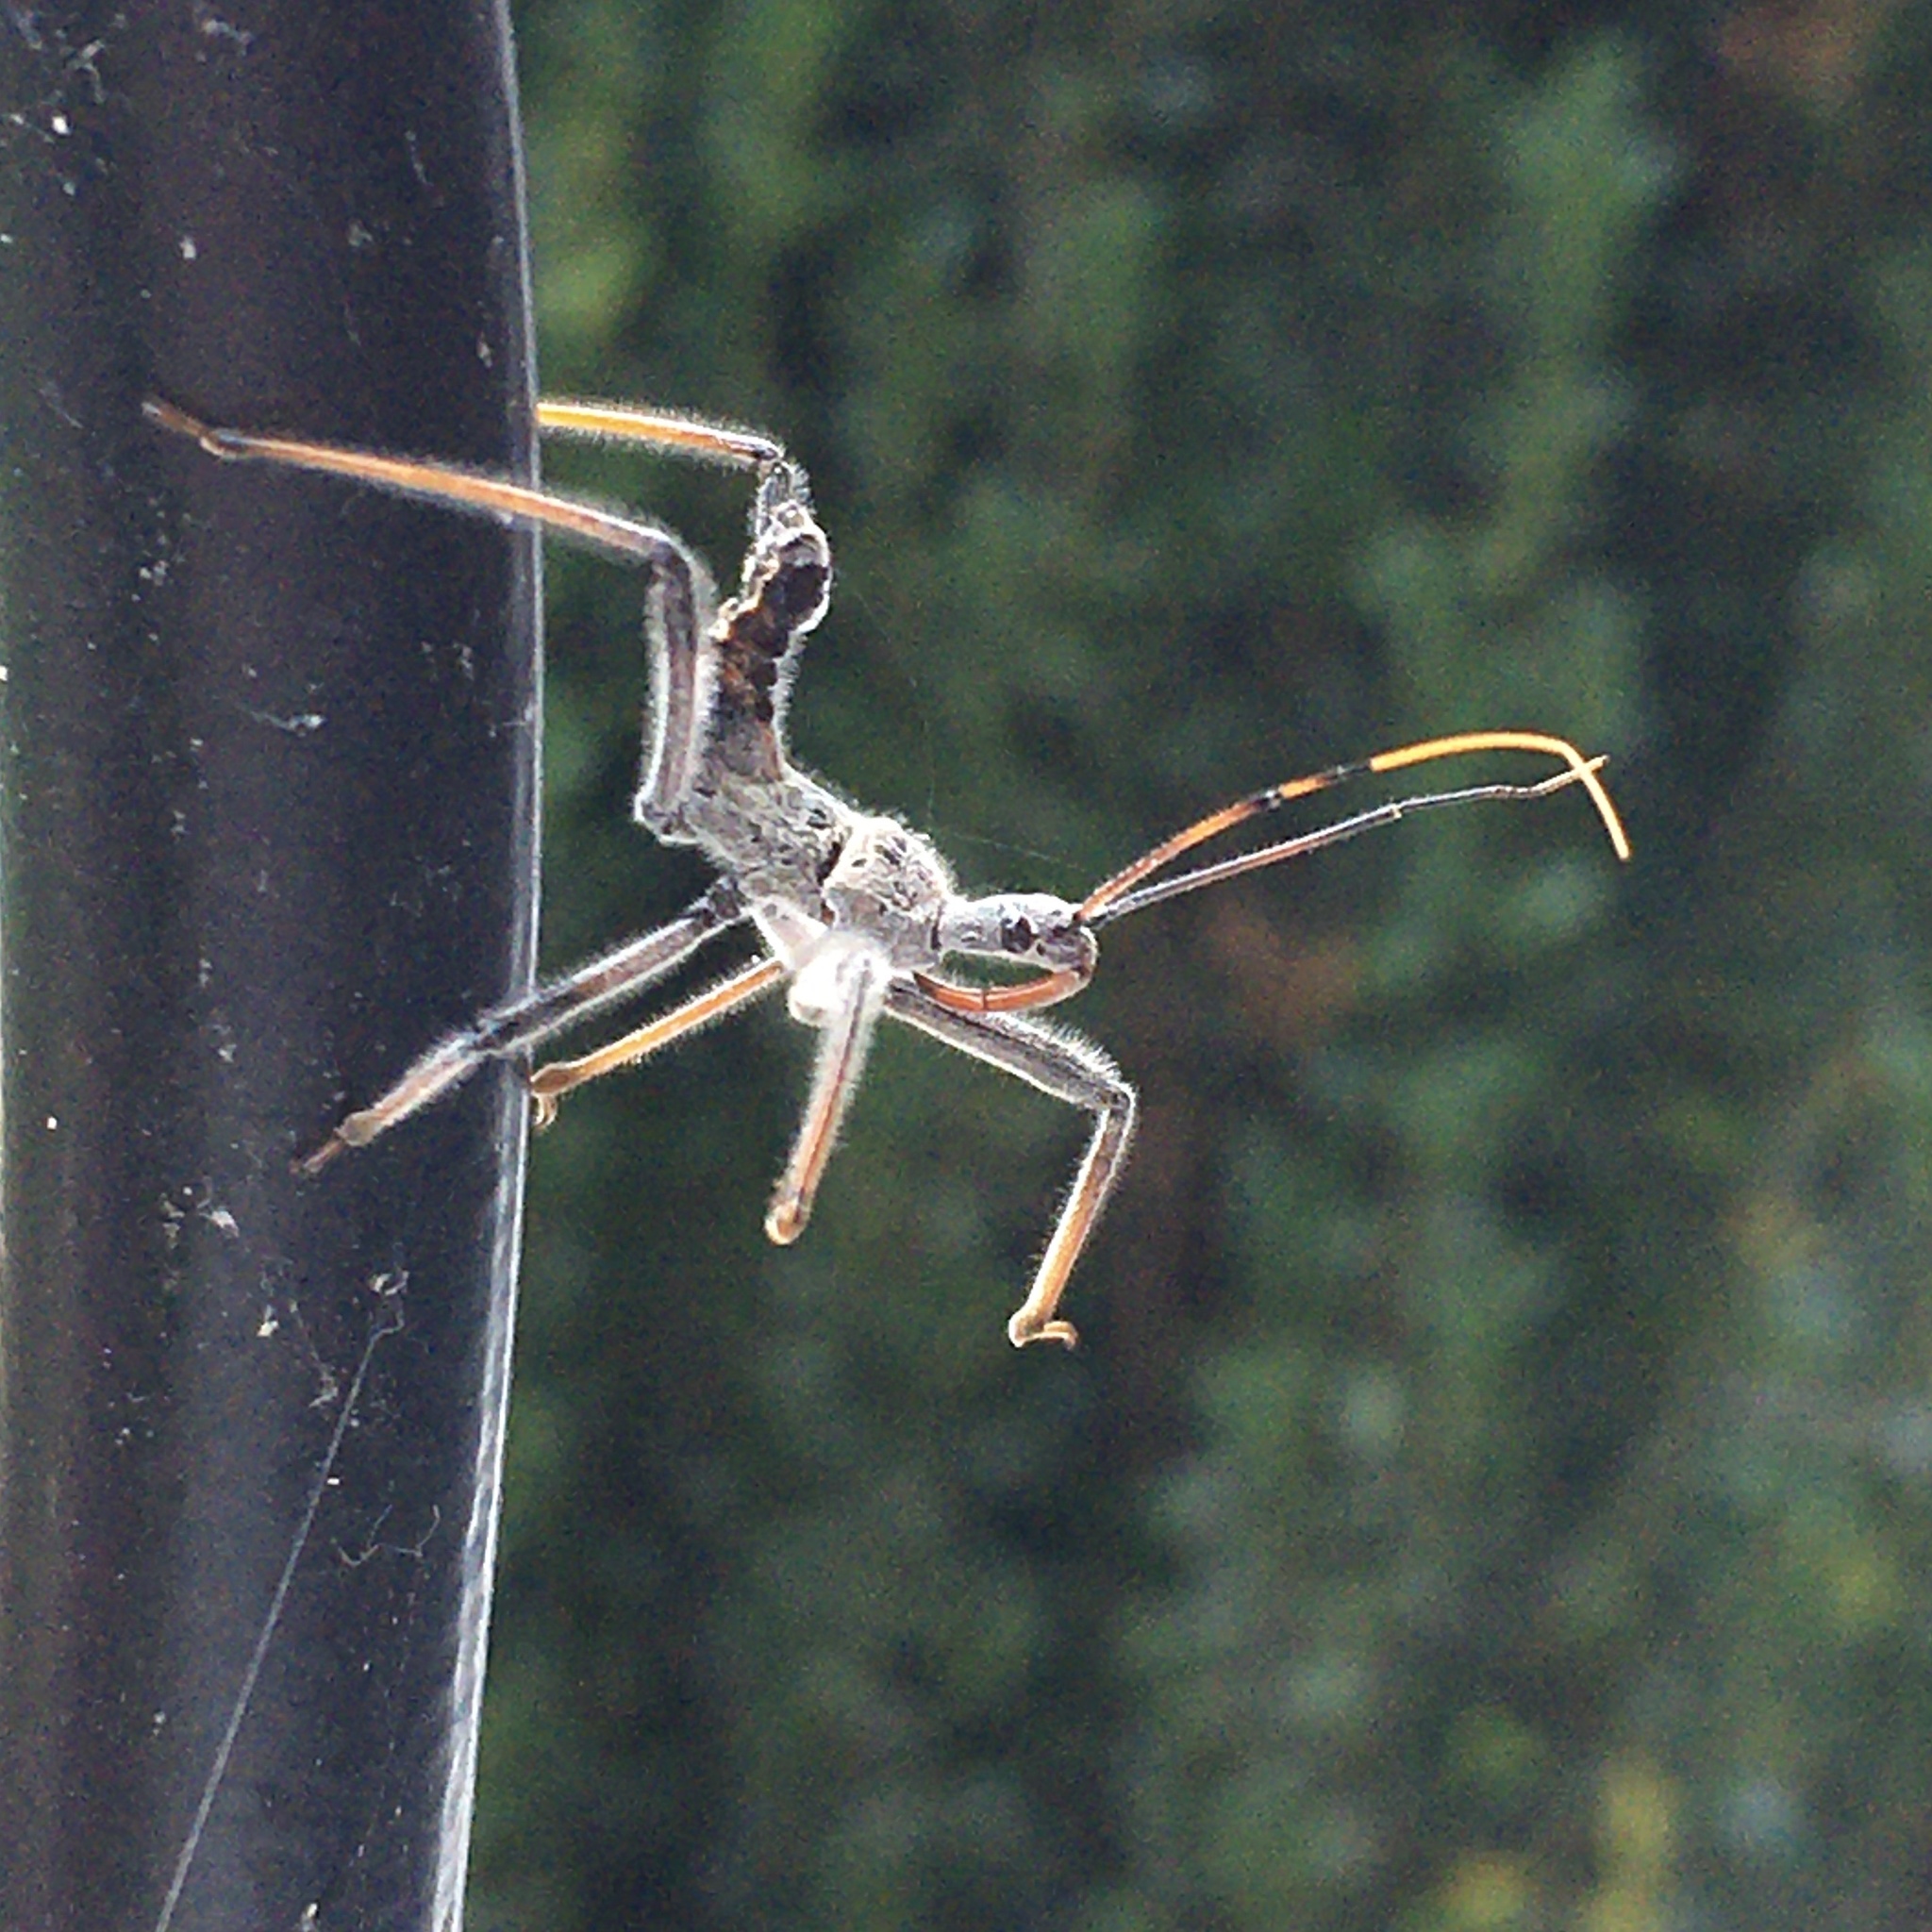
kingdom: Animalia
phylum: Arthropoda
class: Insecta
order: Hemiptera
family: Reduviidae
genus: Arilus
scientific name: Arilus cristatus
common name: North american wheel bug
